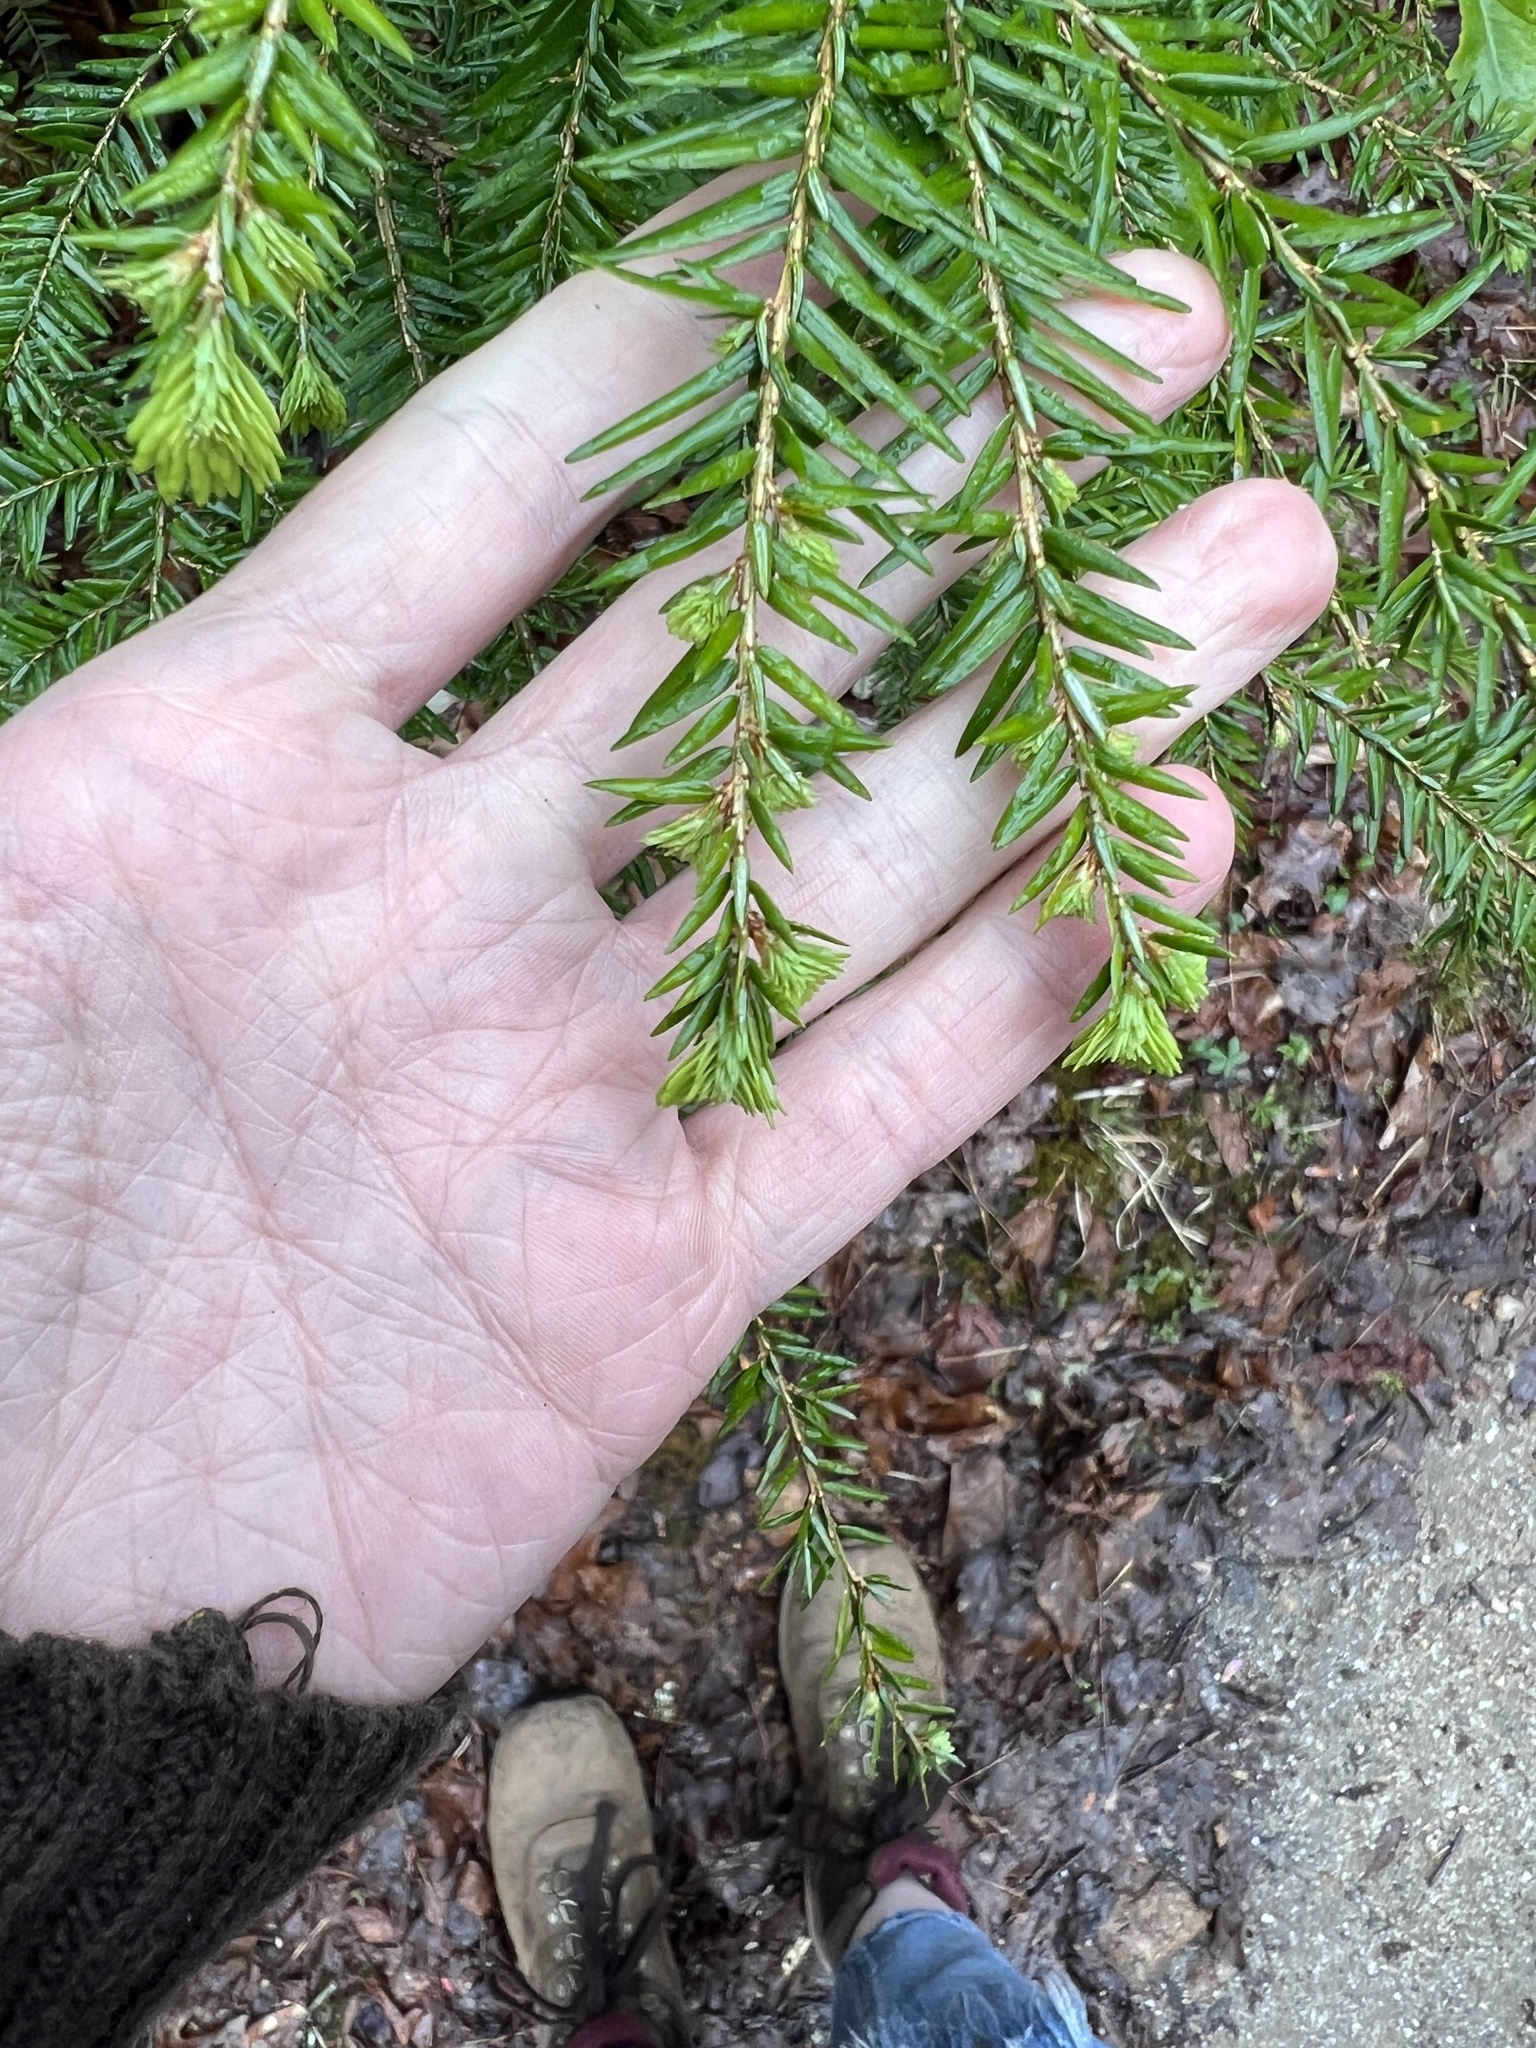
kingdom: Plantae
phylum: Tracheophyta
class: Pinopsida
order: Pinales
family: Pinaceae
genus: Tsuga
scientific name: Tsuga canadensis
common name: Eastern hemlock
